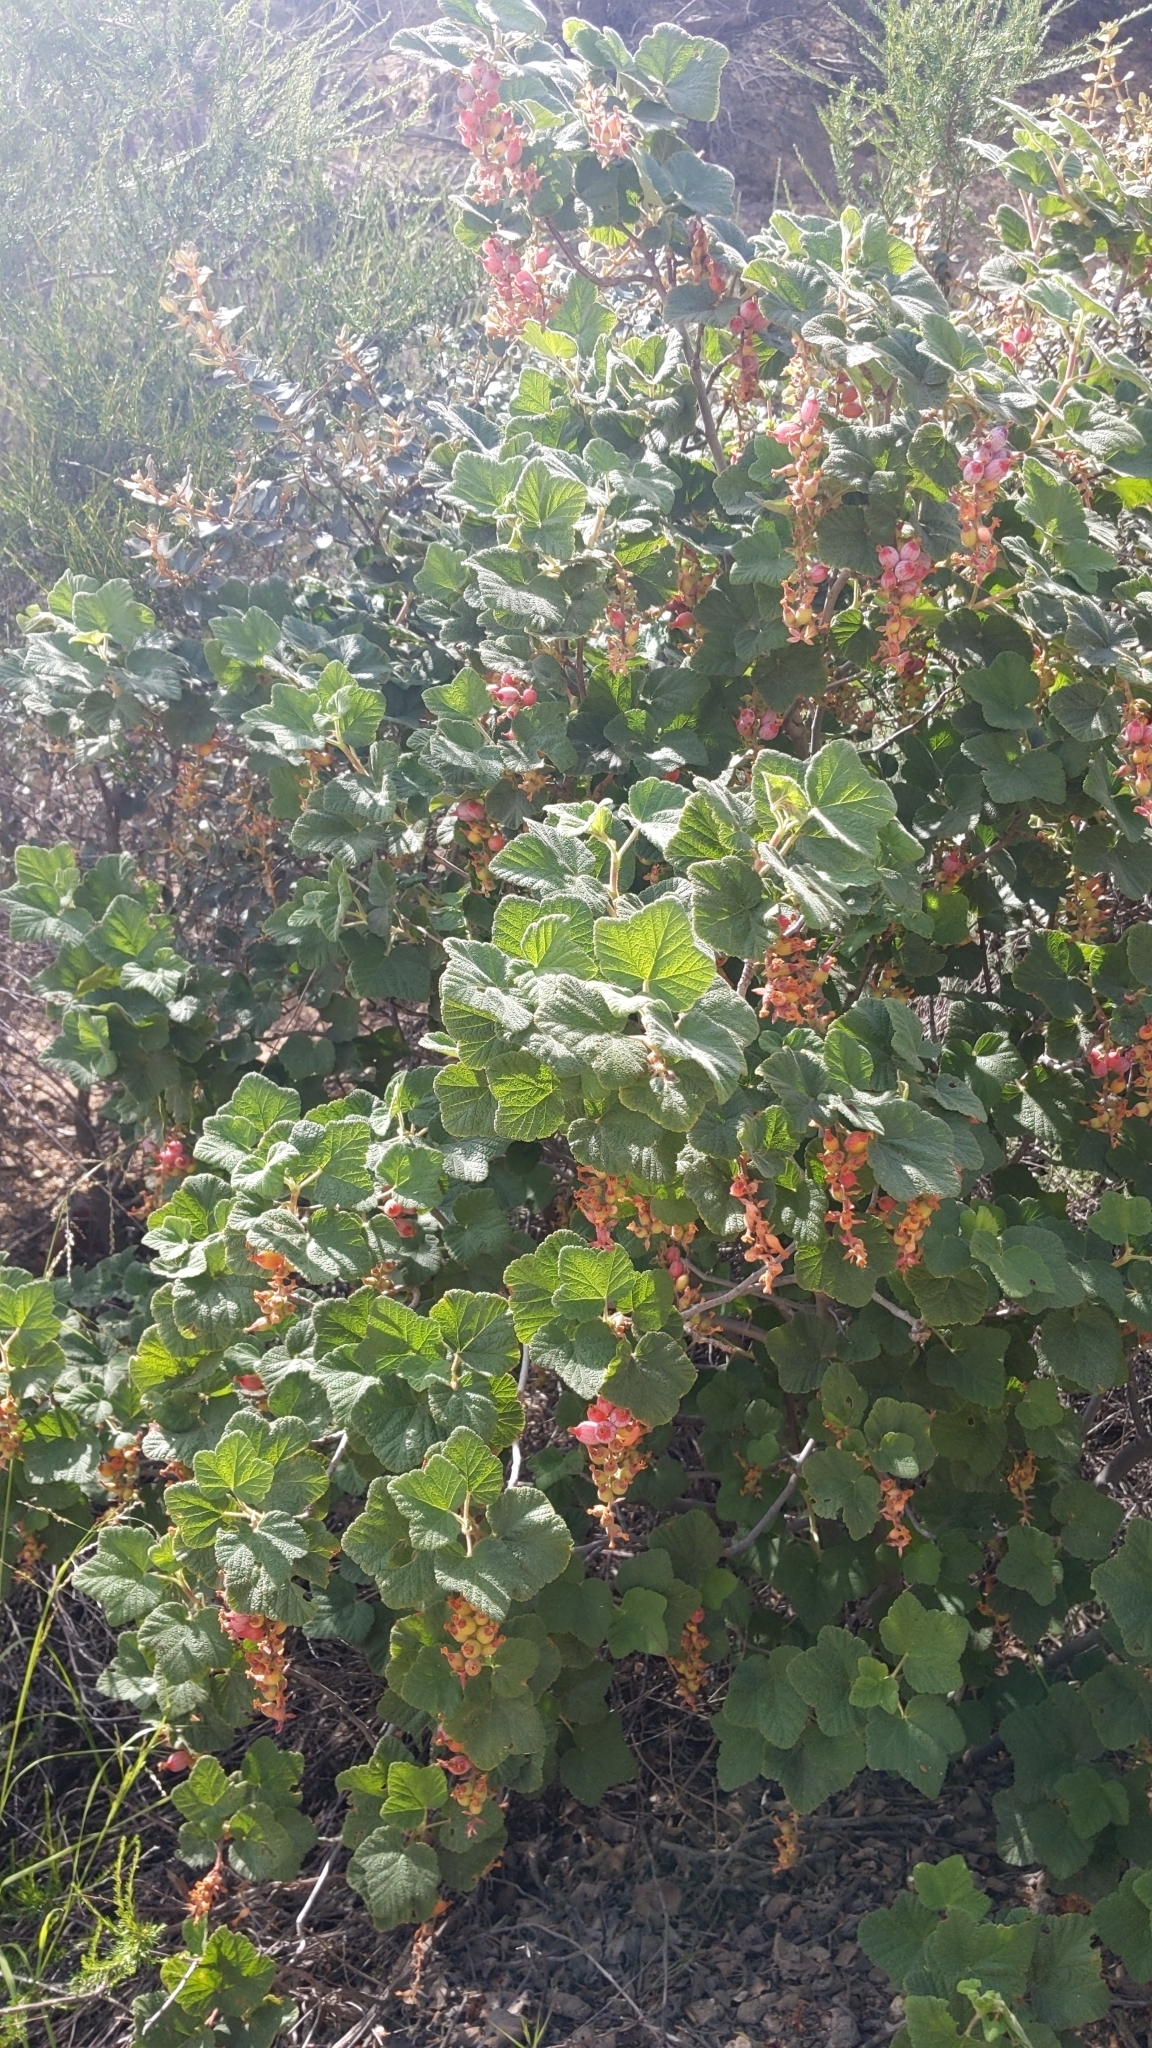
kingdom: Plantae
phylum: Tracheophyta
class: Magnoliopsida
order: Saxifragales
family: Grossulariaceae
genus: Ribes
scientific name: Ribes malvaceum
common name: Chaparral currant
